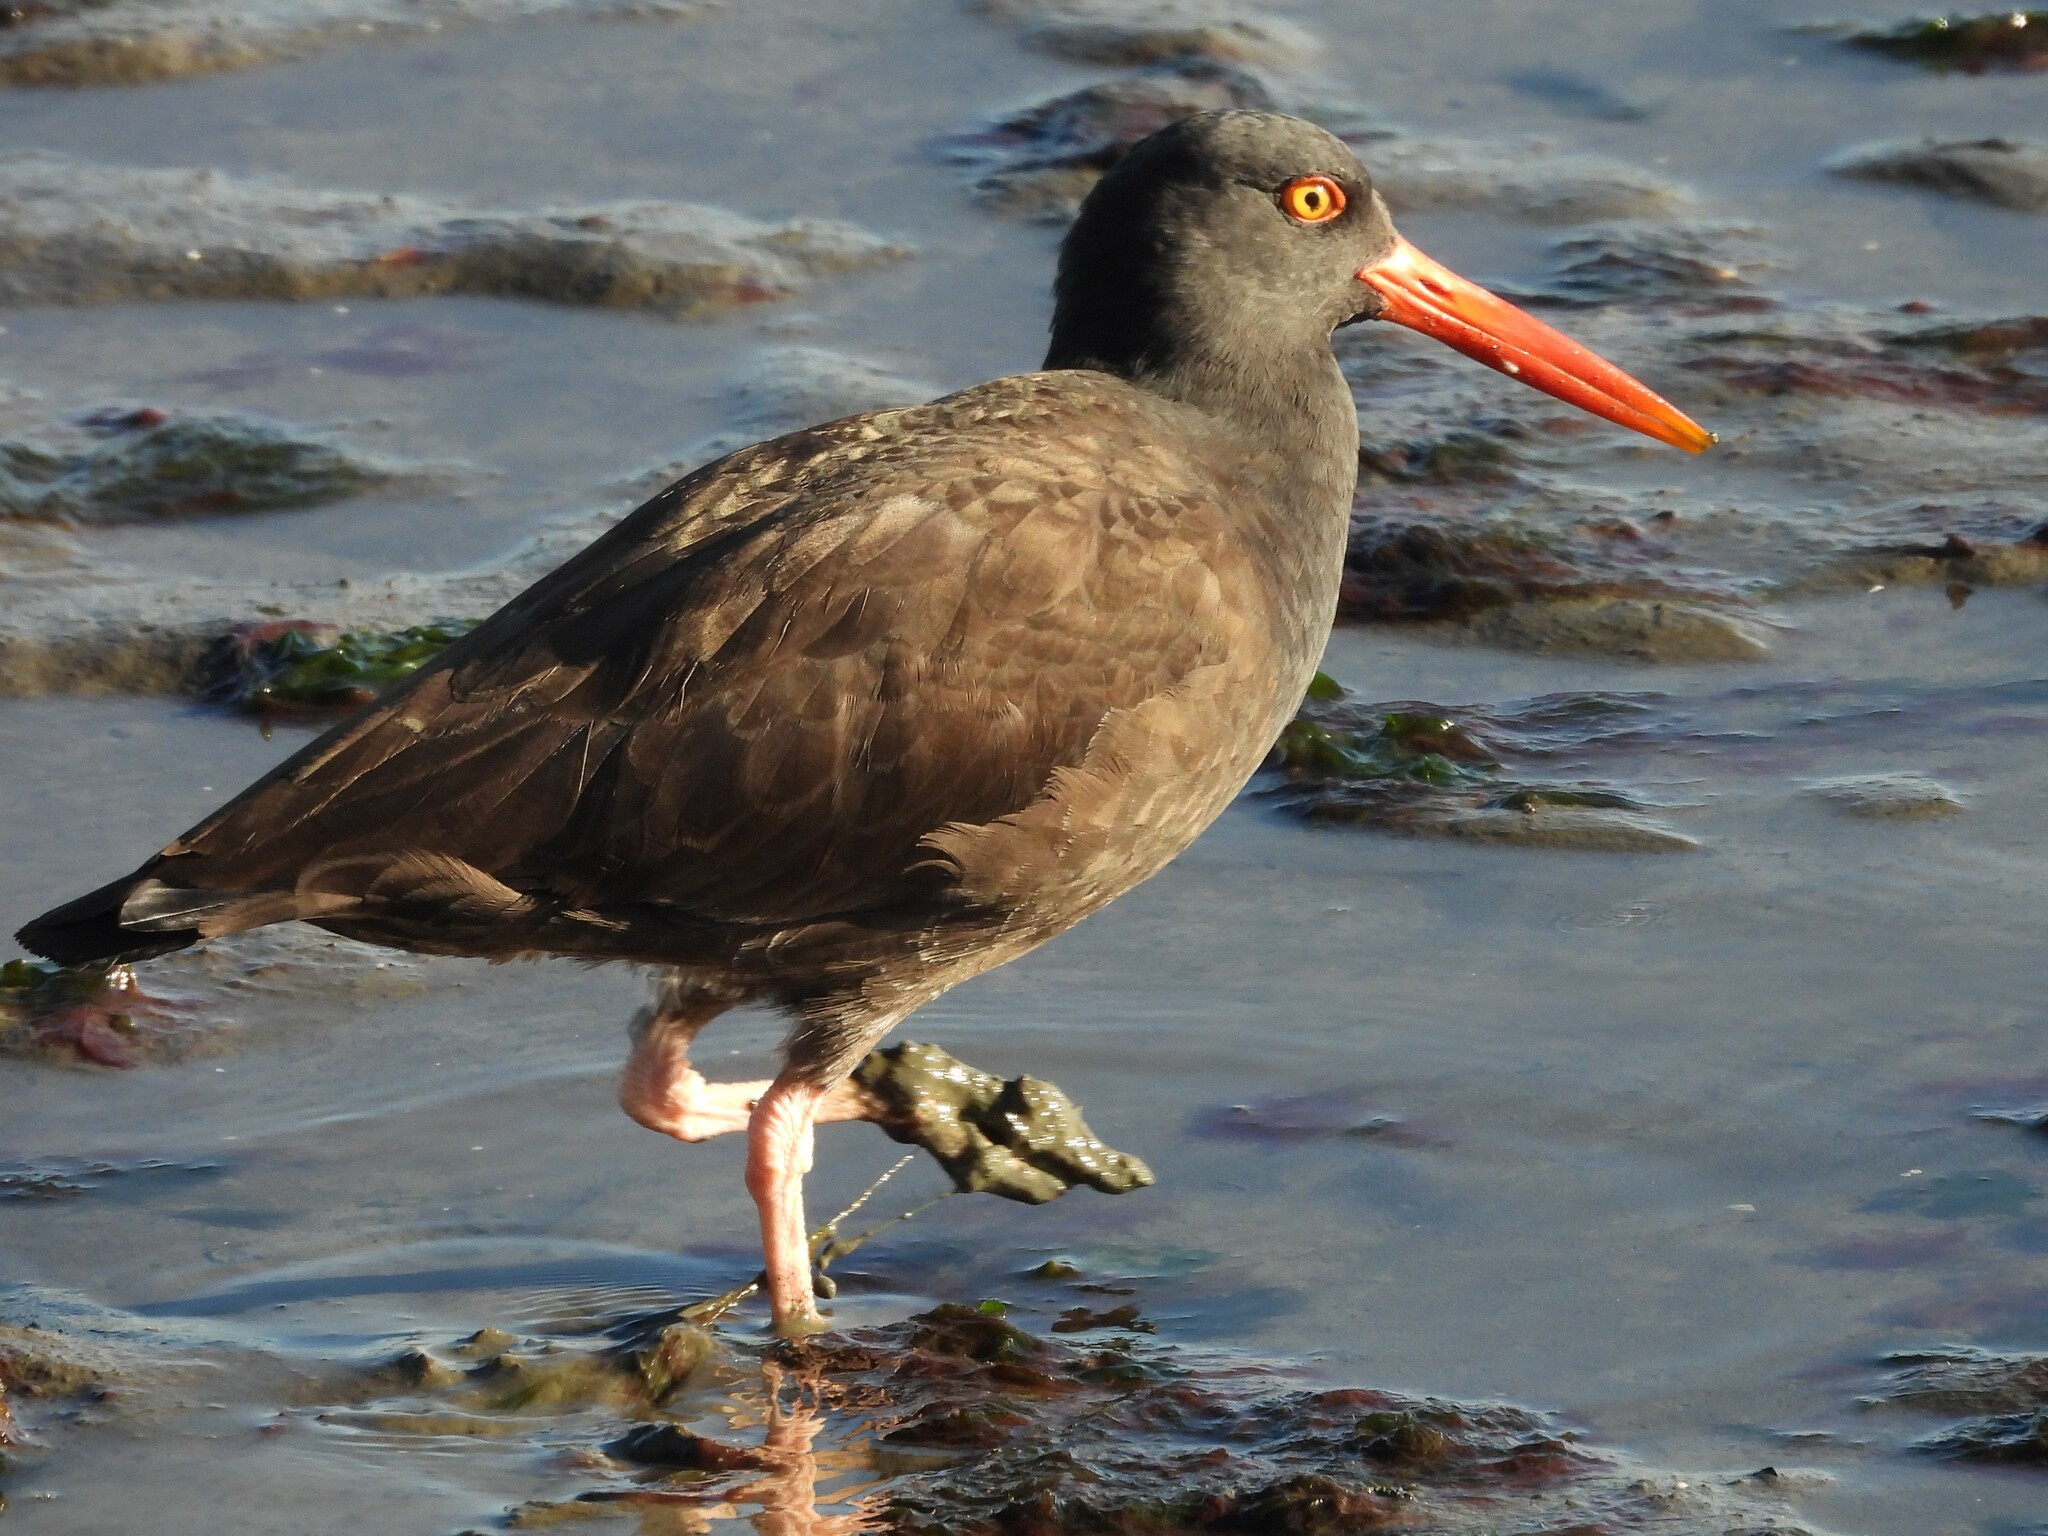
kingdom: Animalia
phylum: Chordata
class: Aves
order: Charadriiformes
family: Haematopodidae
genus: Haematopus
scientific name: Haematopus bachmani
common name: Black oystercatcher
